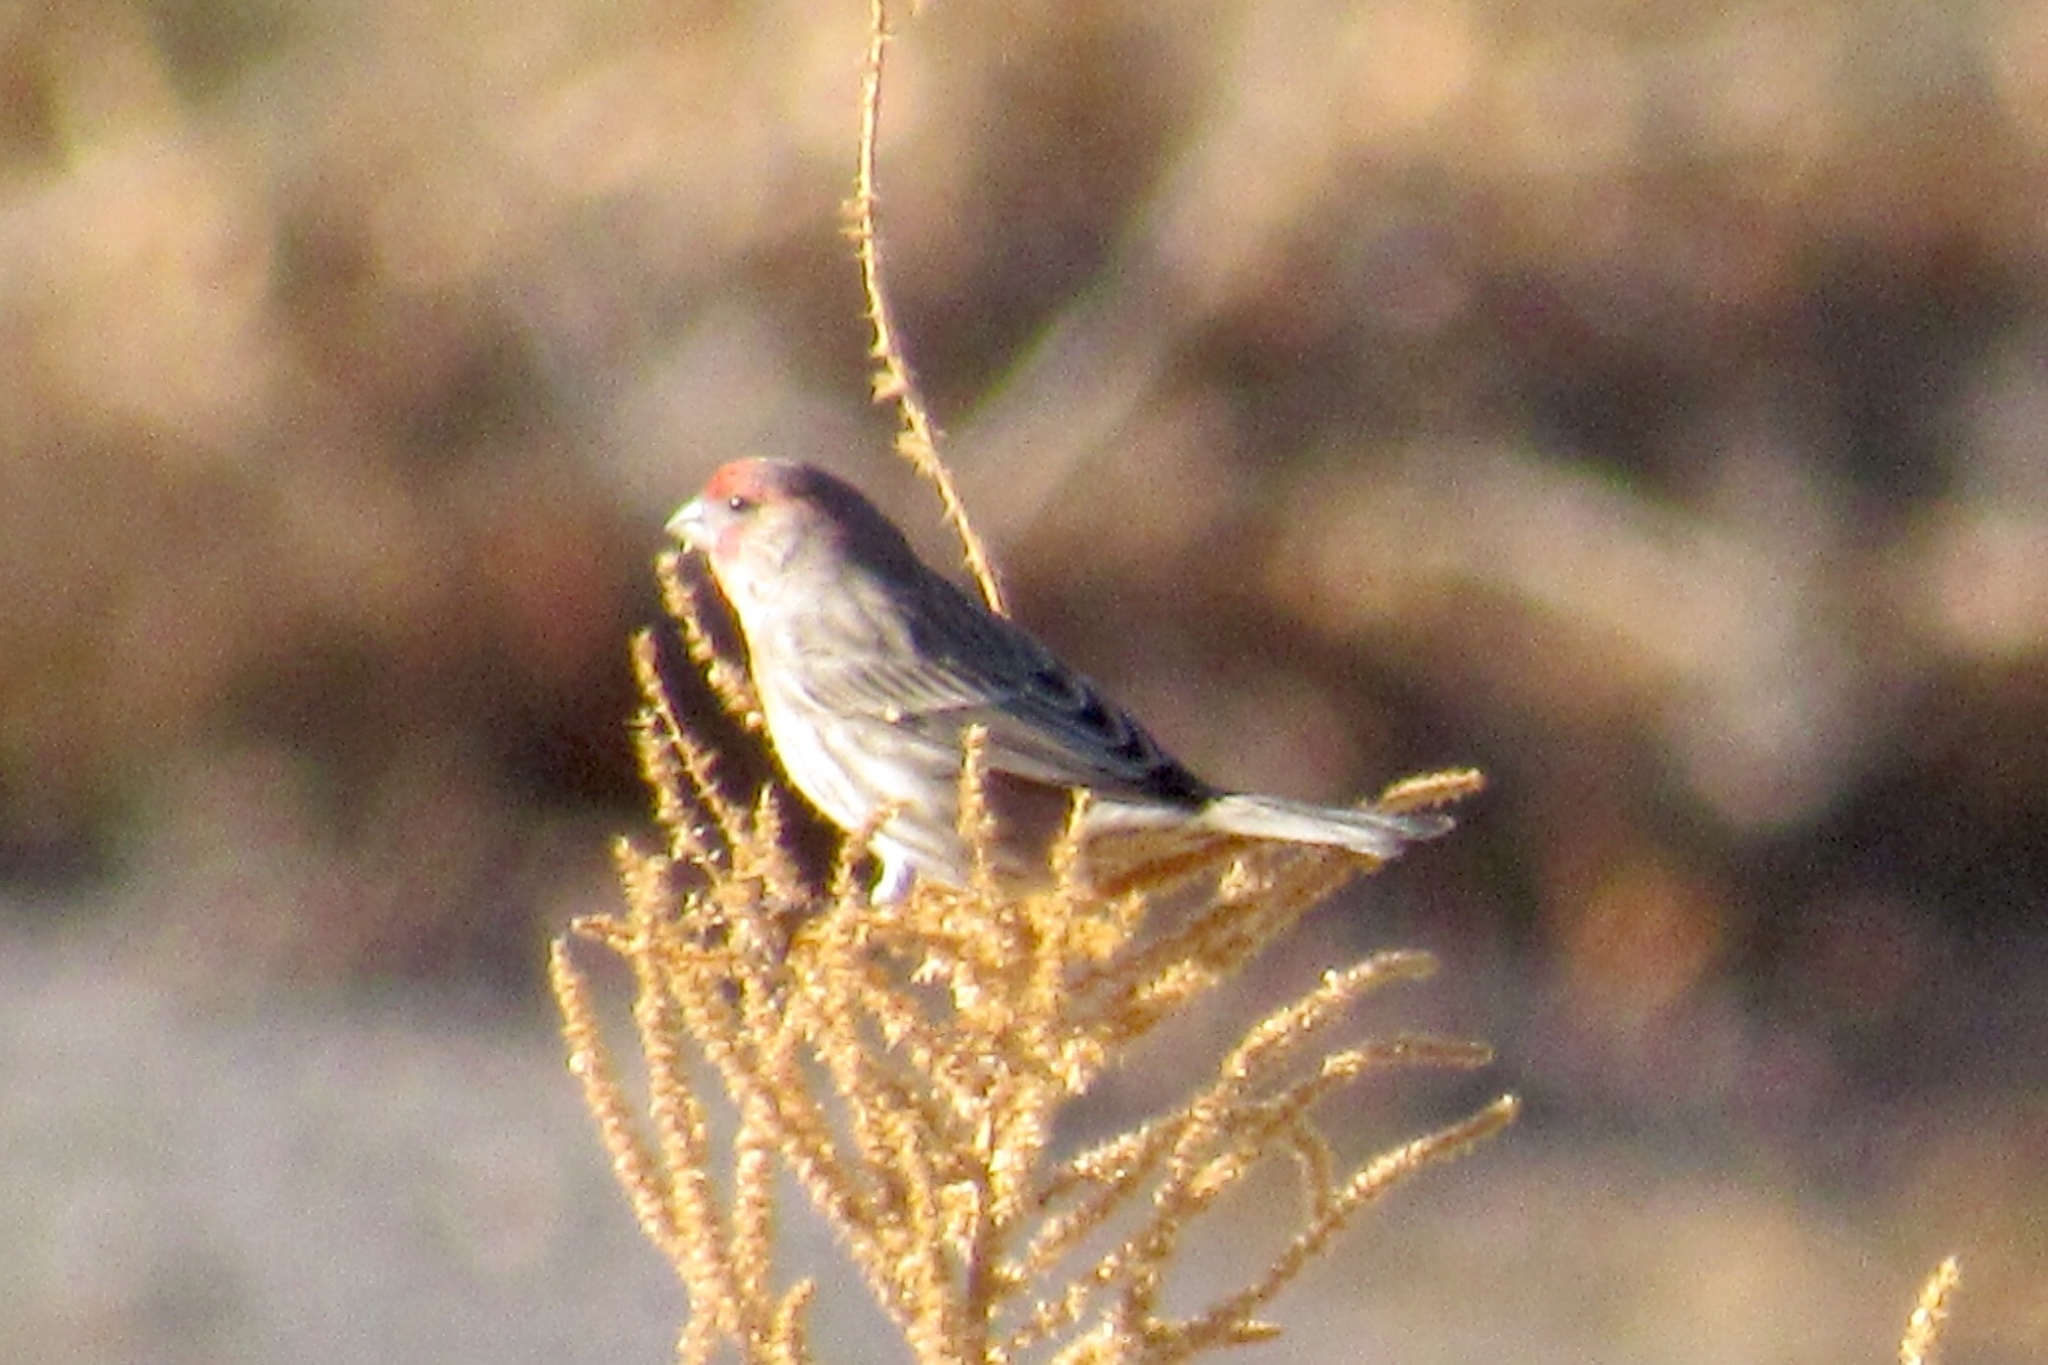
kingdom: Animalia
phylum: Chordata
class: Aves
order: Passeriformes
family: Fringillidae
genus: Haemorhous
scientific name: Haemorhous mexicanus
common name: House finch
